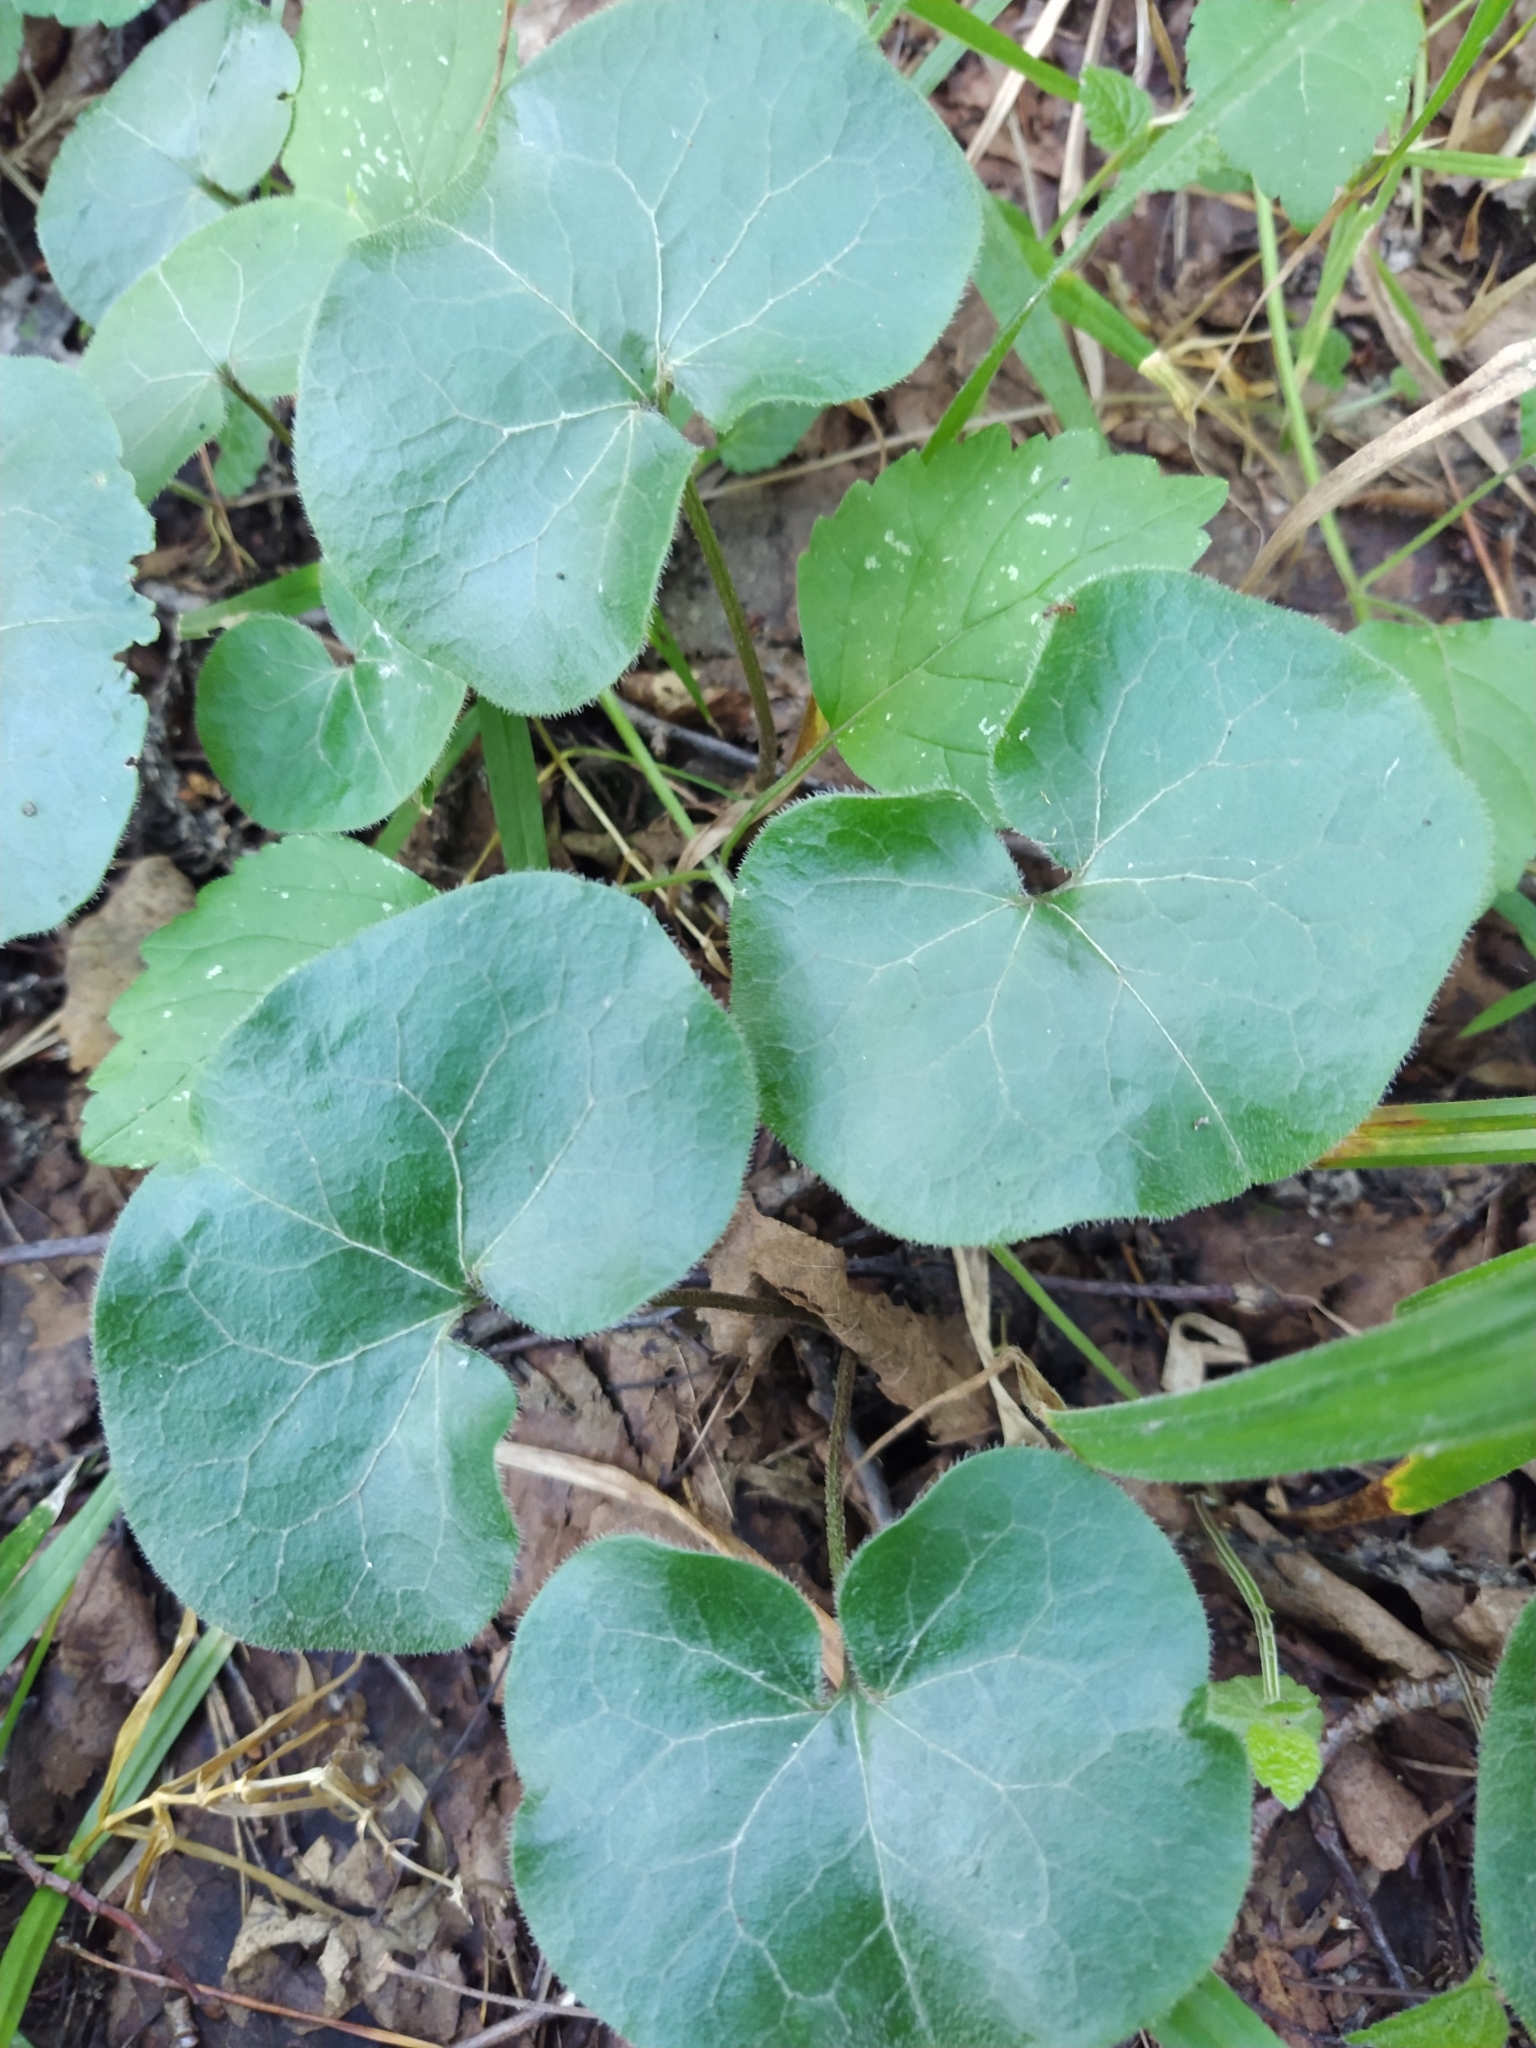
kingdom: Plantae
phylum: Tracheophyta
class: Magnoliopsida
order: Piperales
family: Aristolochiaceae
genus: Asarum
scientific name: Asarum europaeum
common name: Asarabacca
